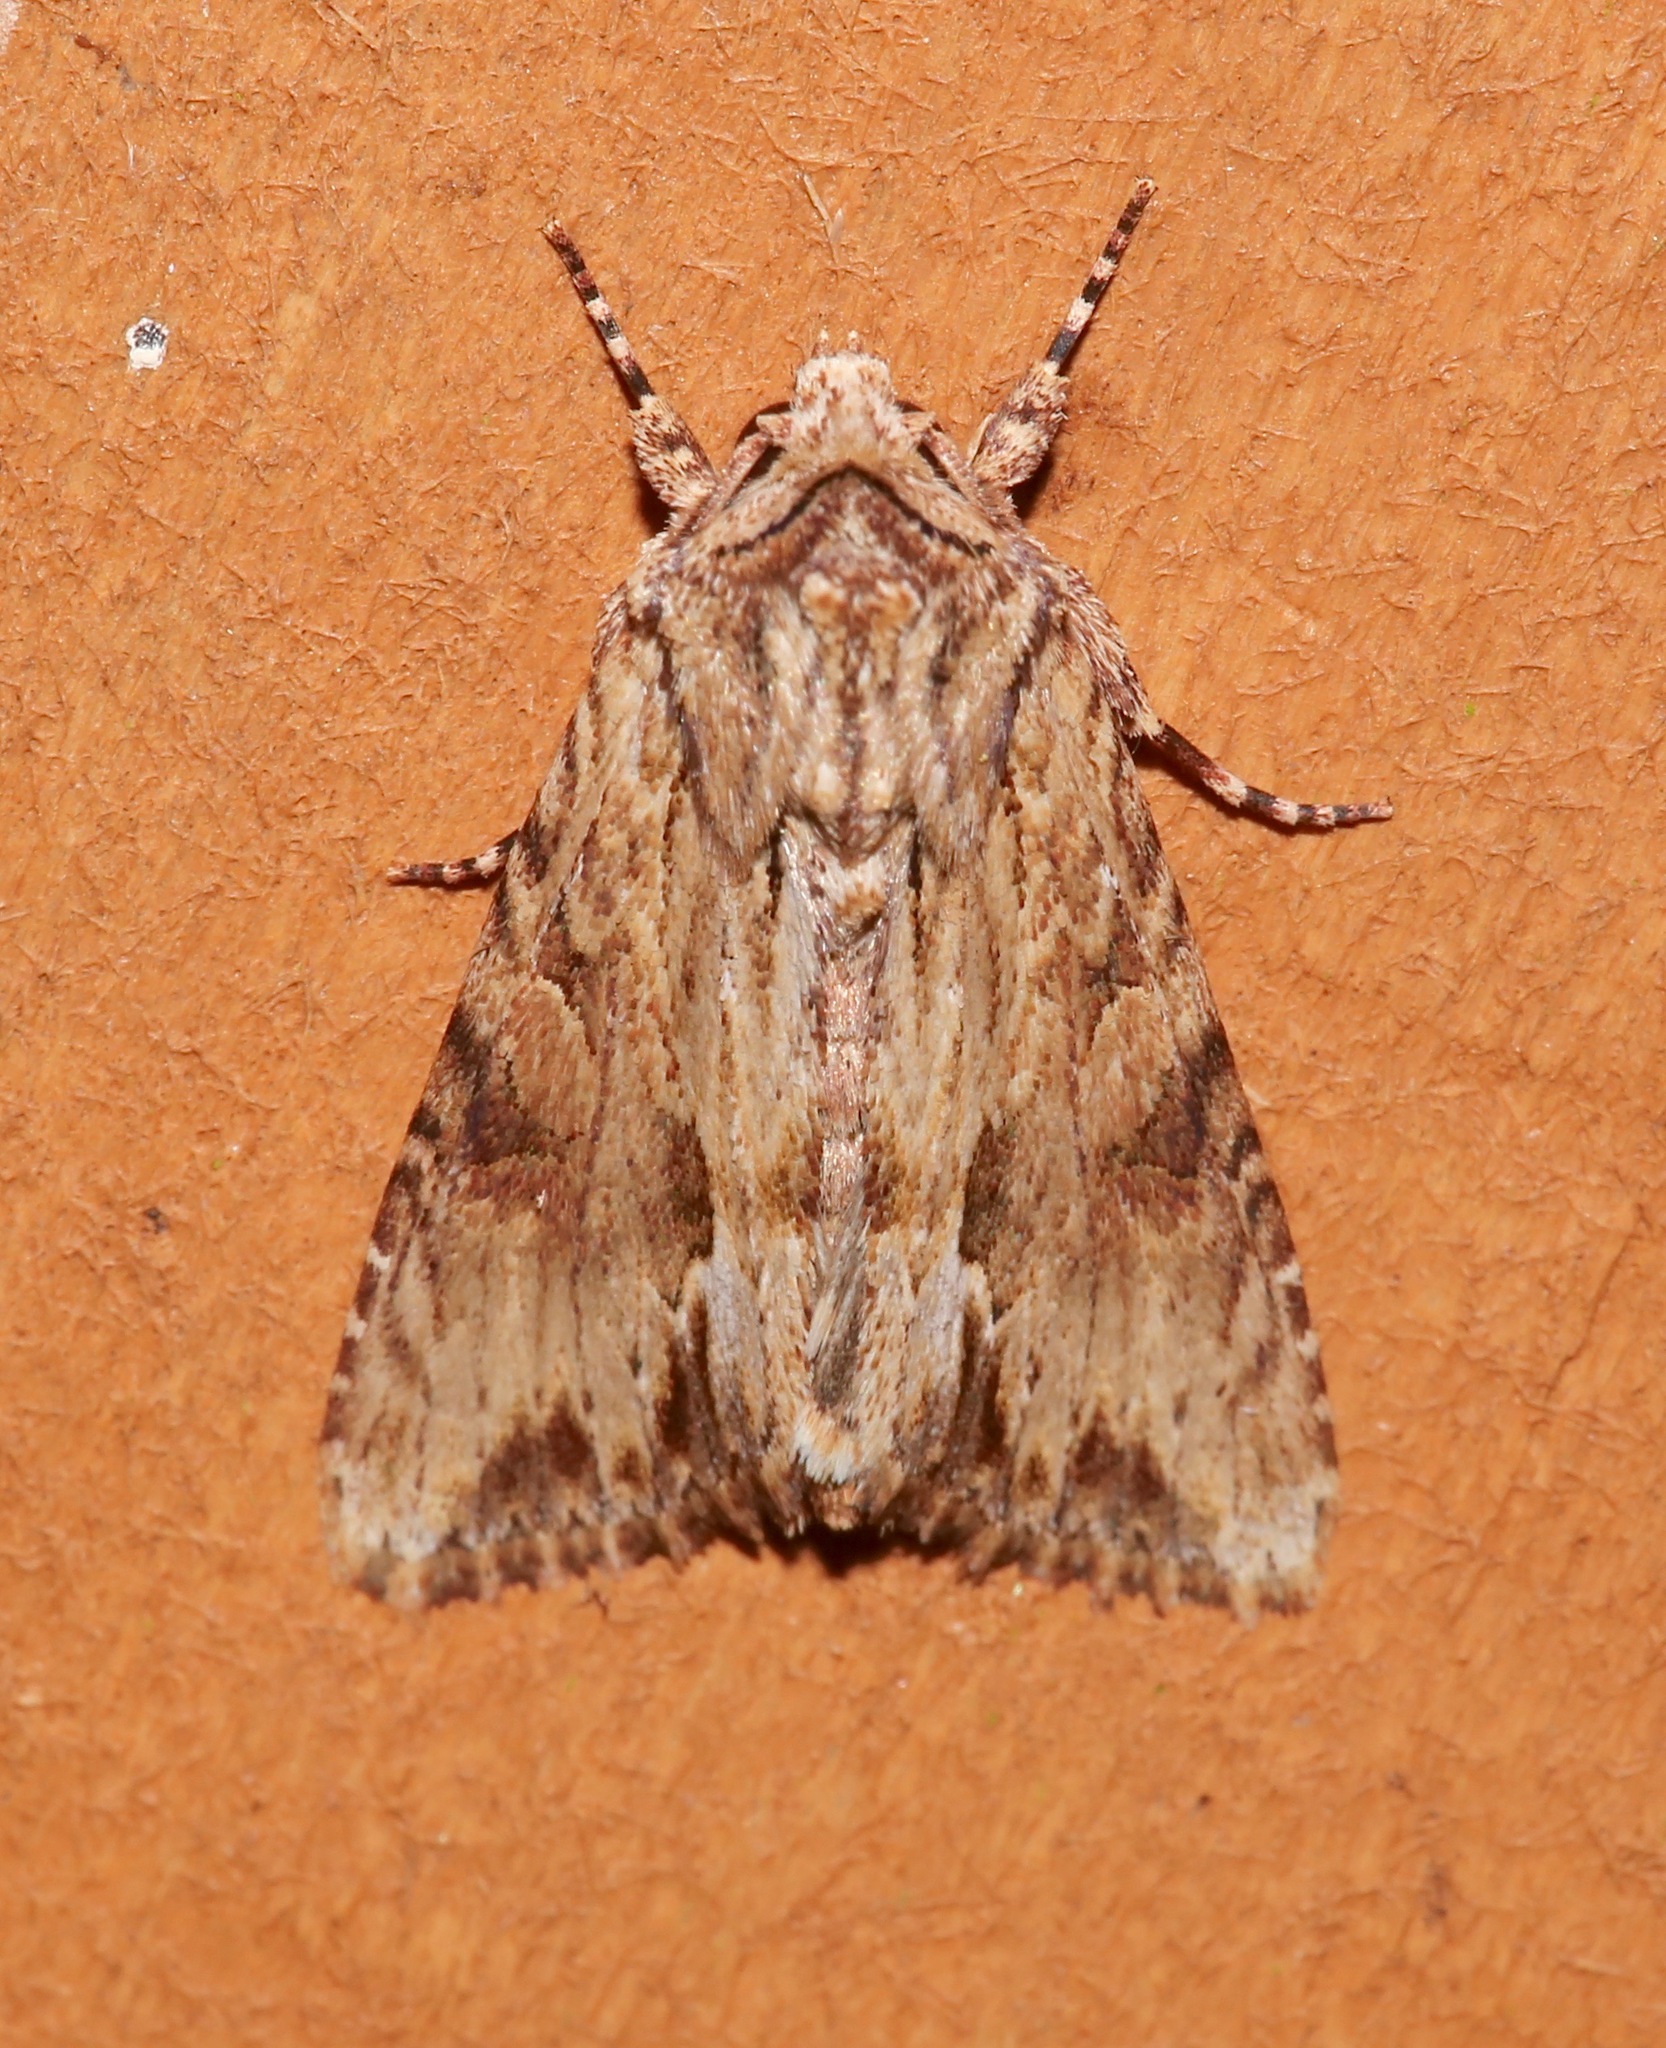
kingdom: Animalia
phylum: Arthropoda
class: Insecta
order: Lepidoptera
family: Noctuidae
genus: Achatia
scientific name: Achatia mucens
